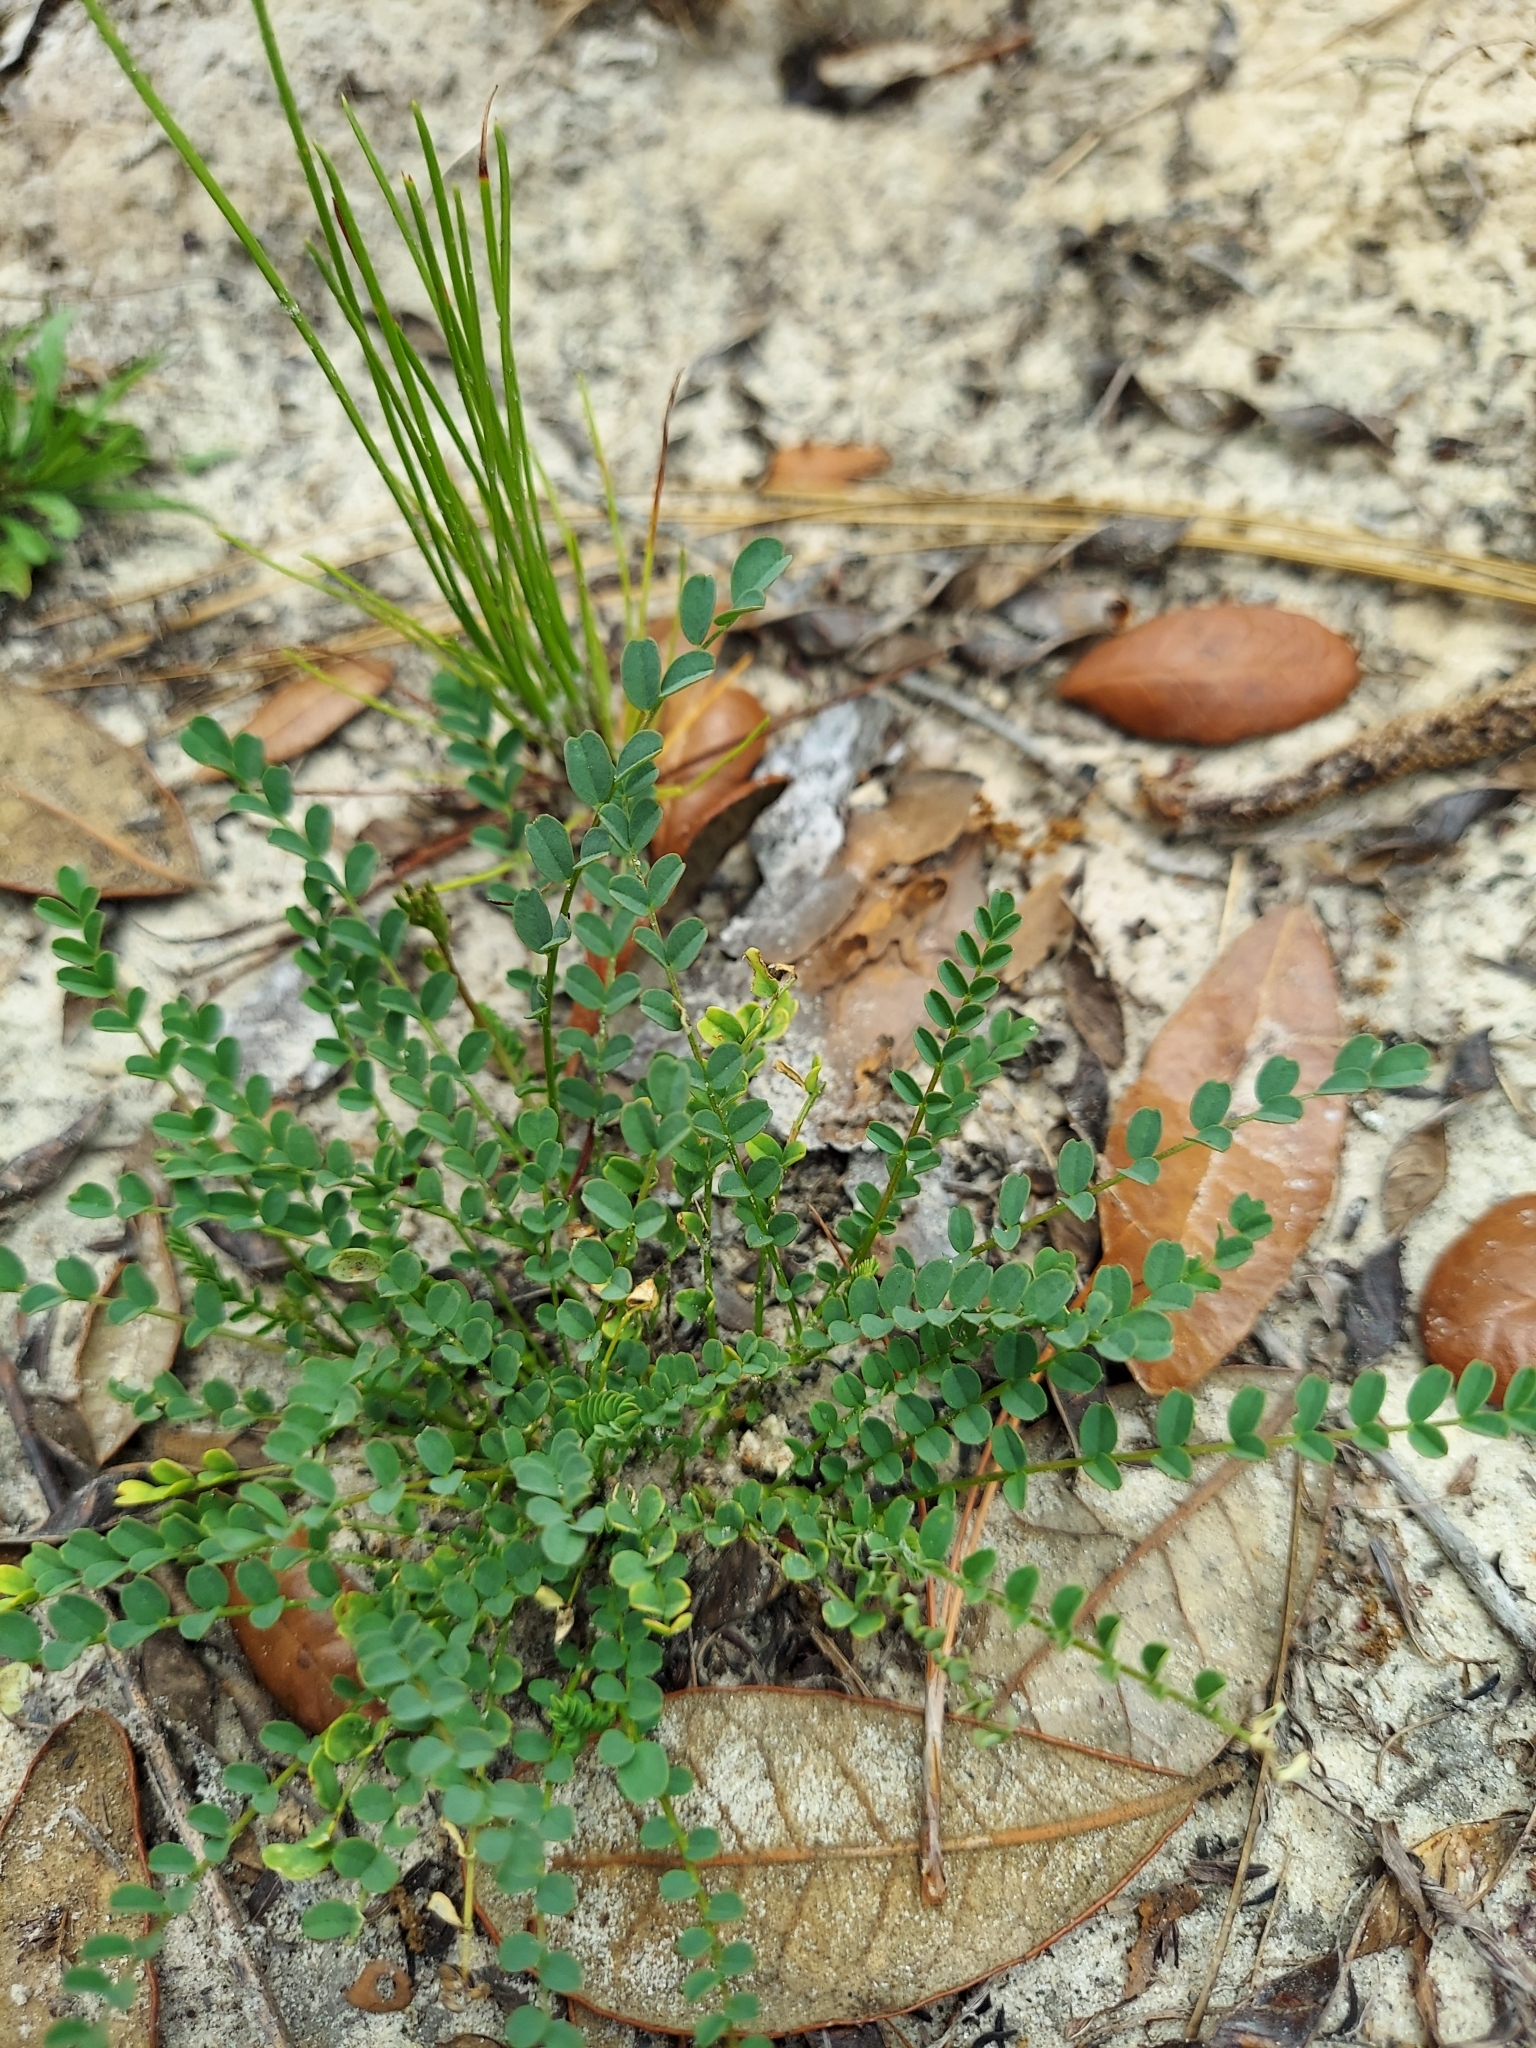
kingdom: Plantae
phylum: Tracheophyta
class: Magnoliopsida
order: Fabales
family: Fabaceae
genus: Astragalus
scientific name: Astragalus obcordatus
